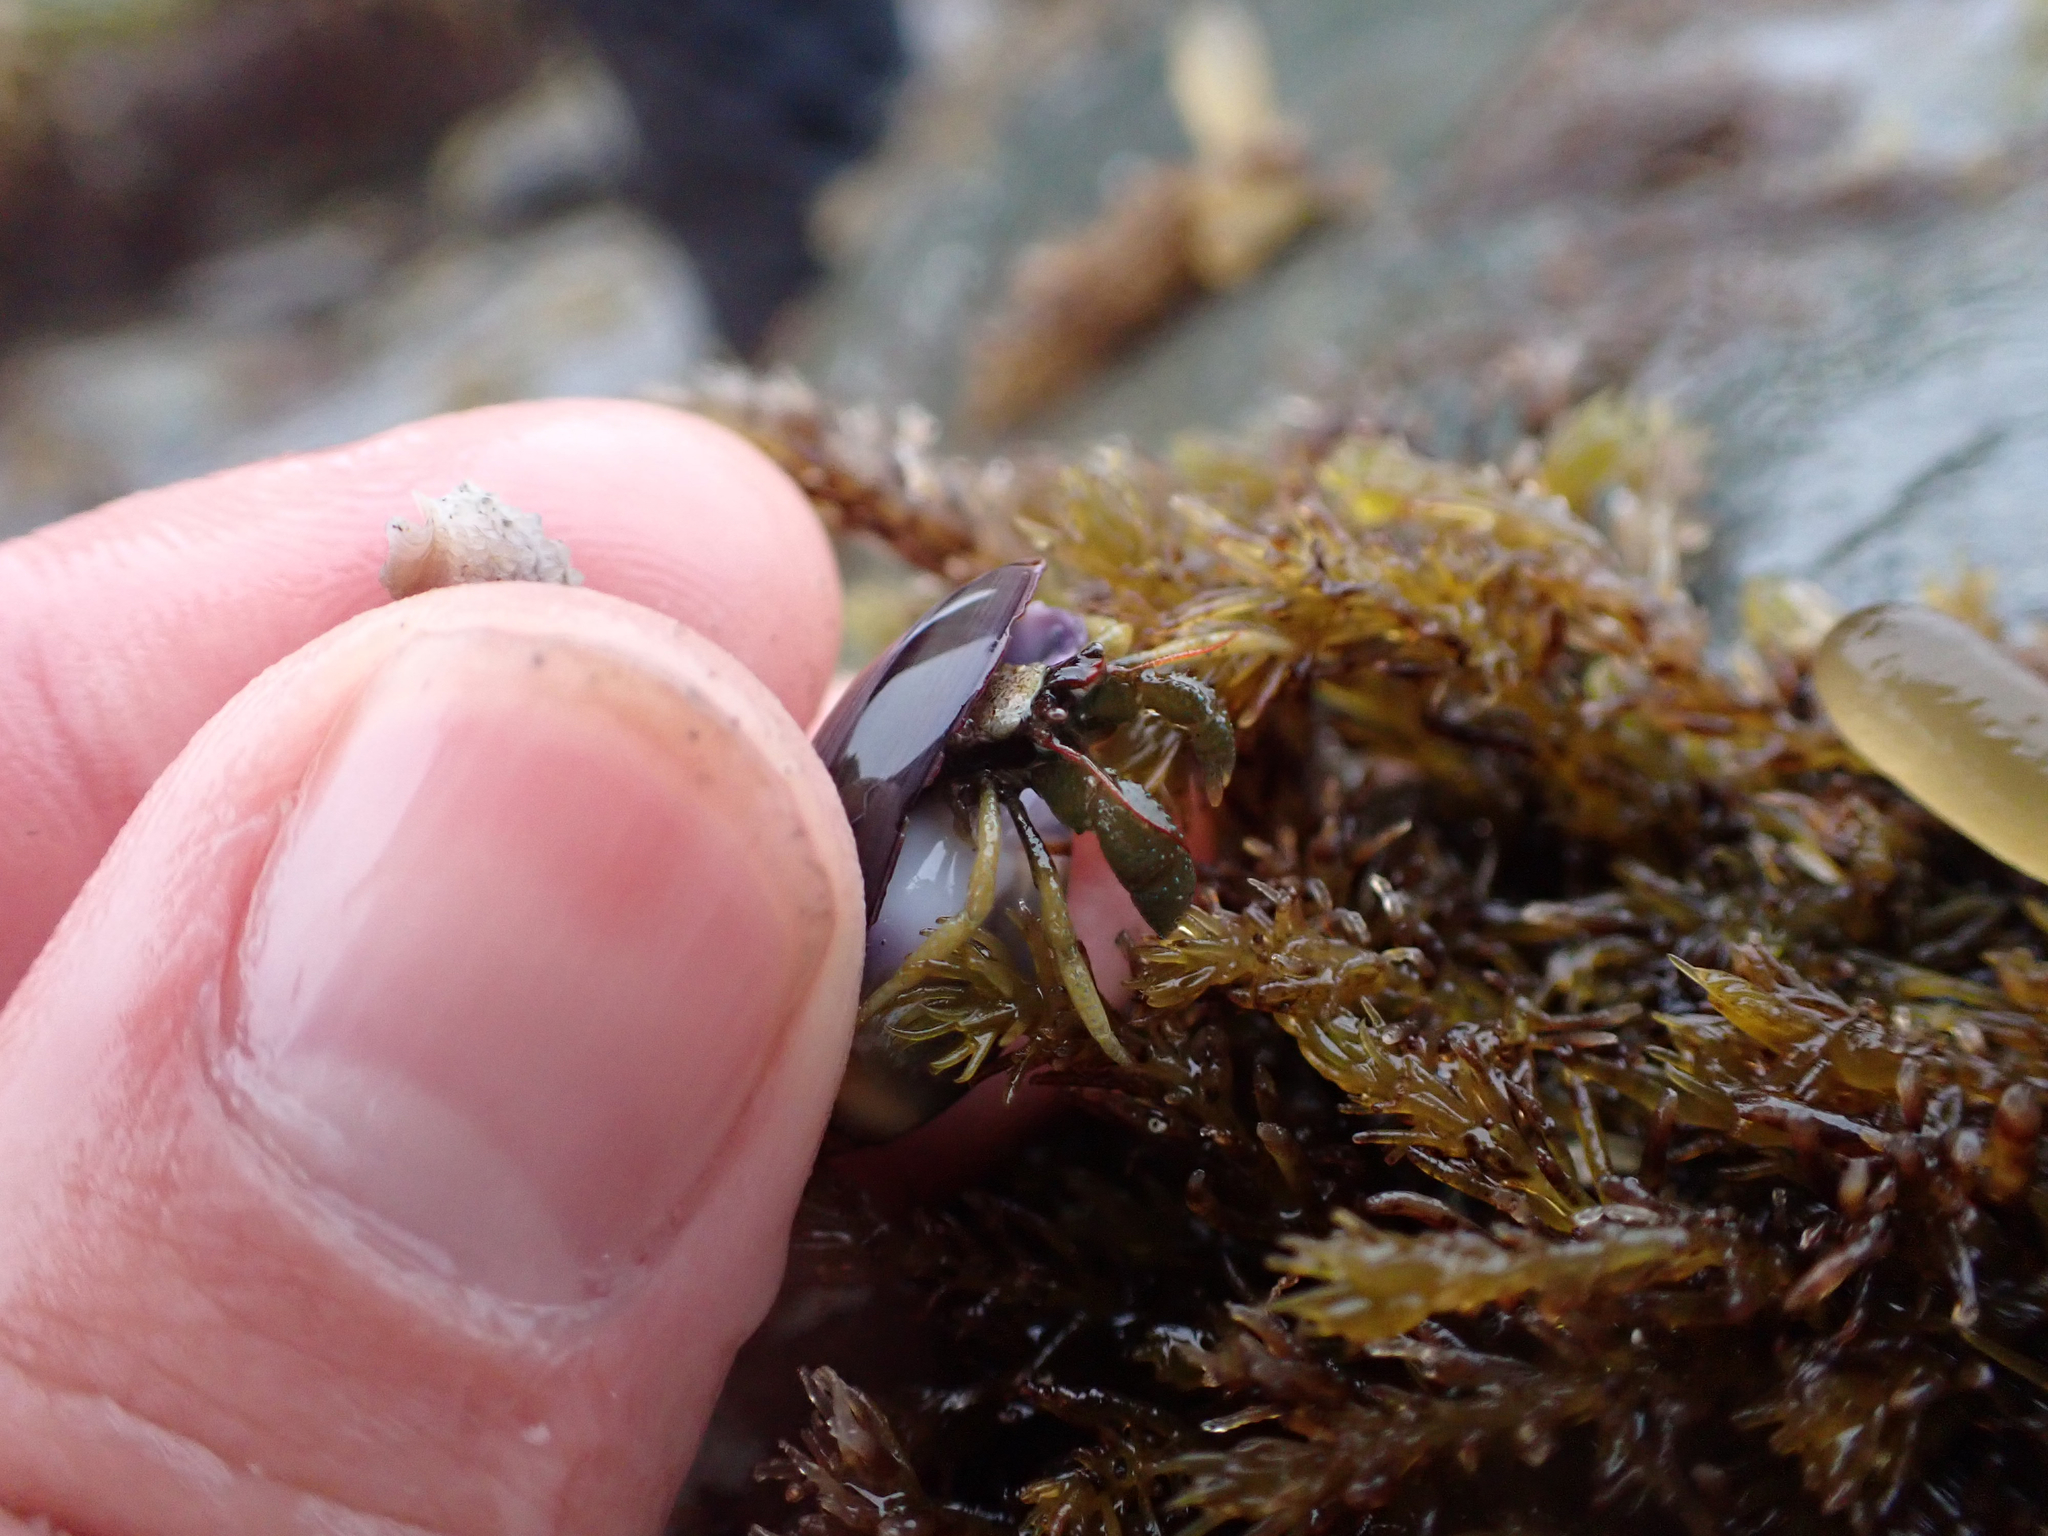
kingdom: Animalia
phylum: Arthropoda
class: Malacostraca
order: Decapoda
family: Paguridae
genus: Pagurus
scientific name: Pagurus granosimanus
